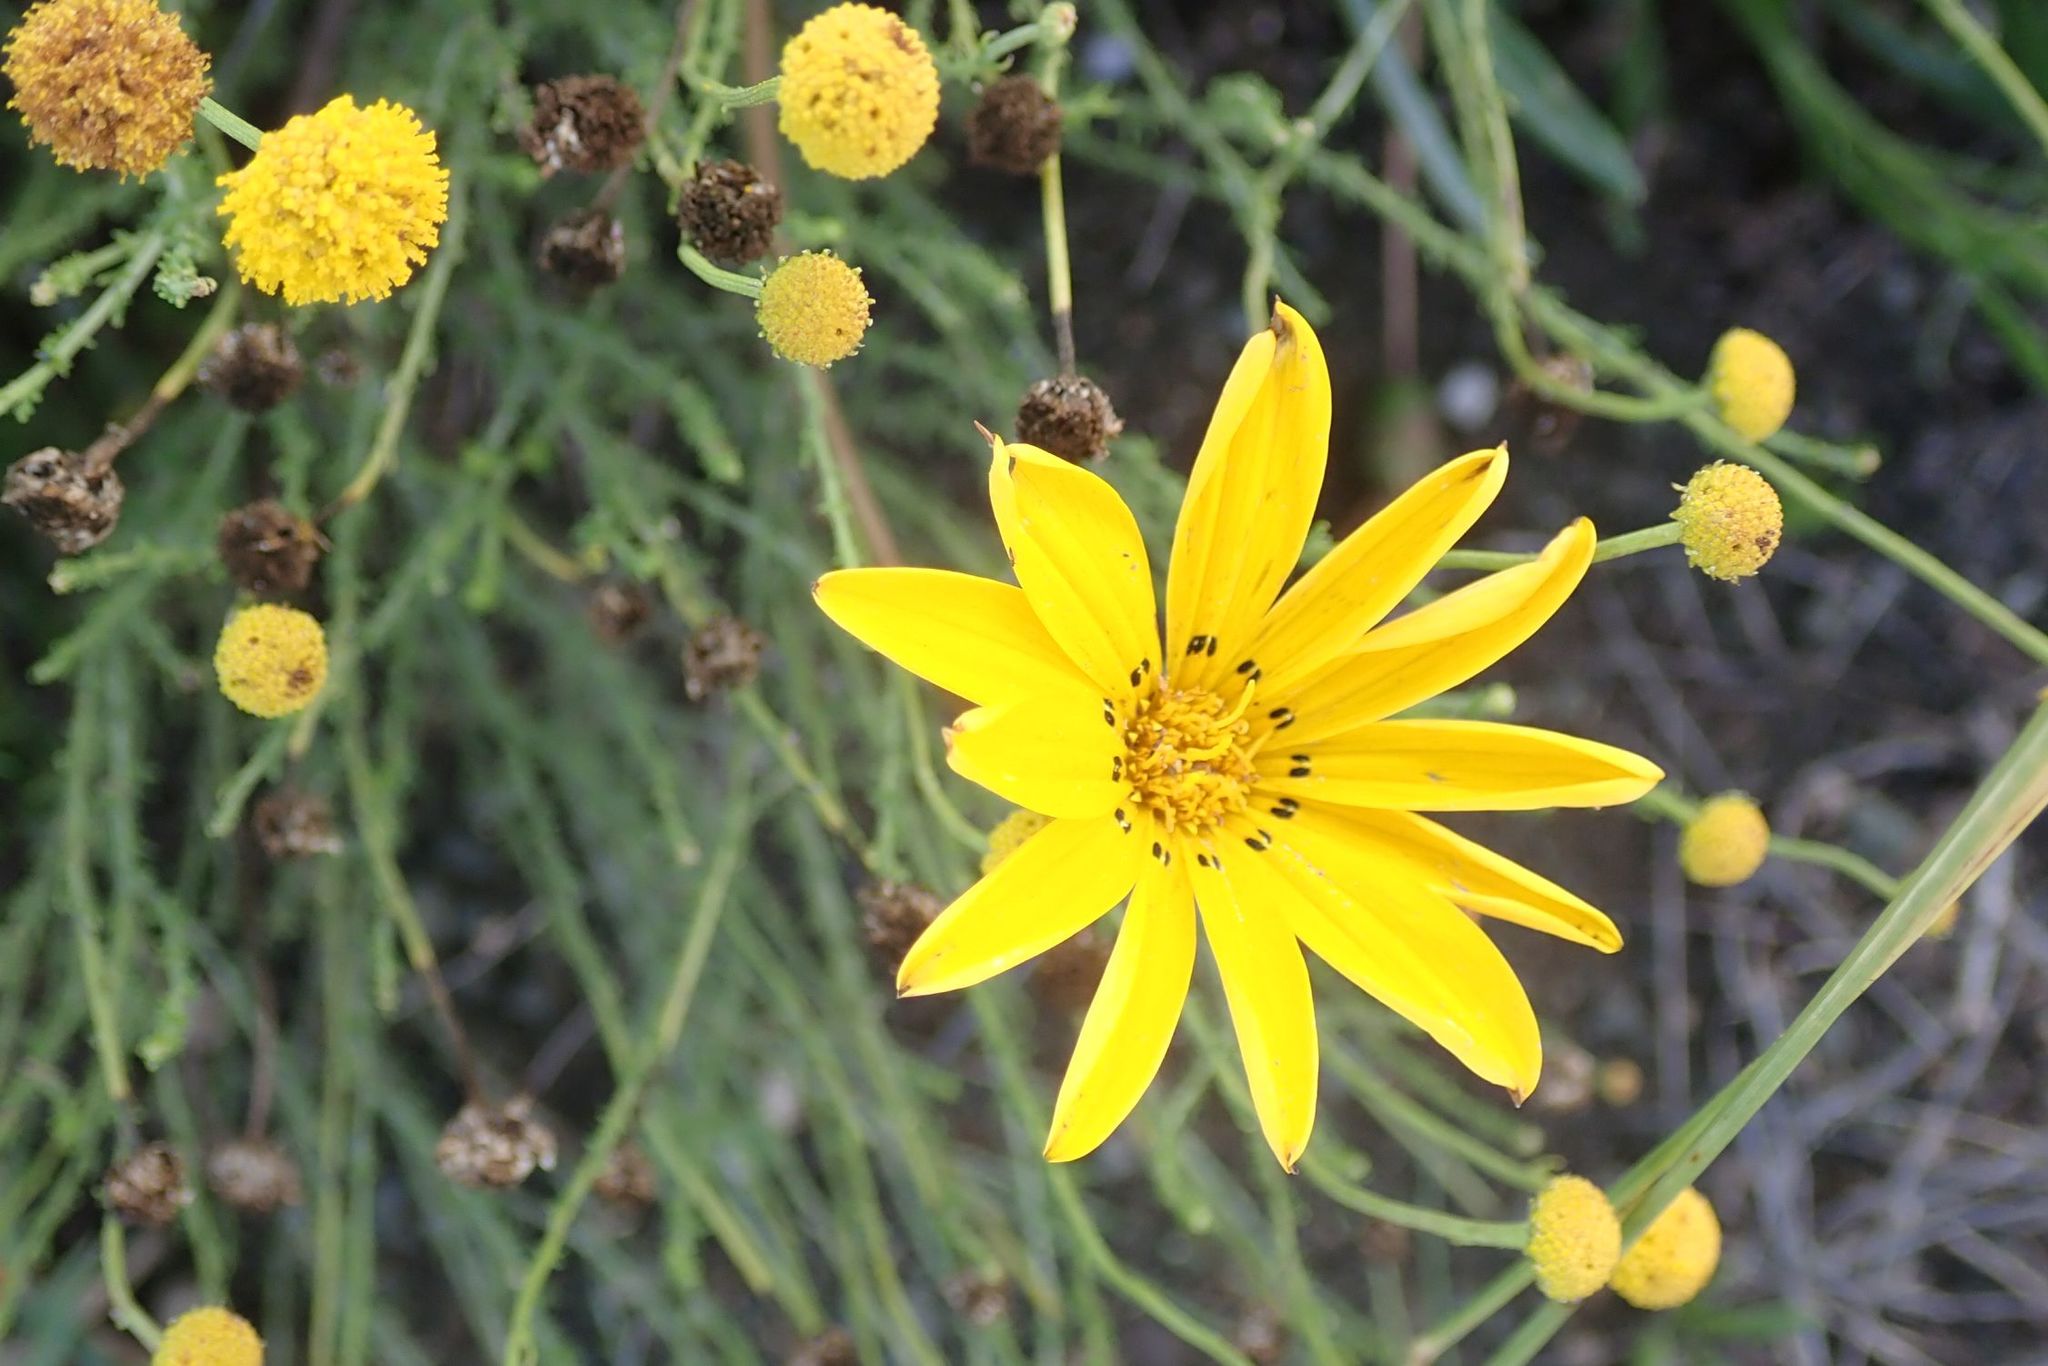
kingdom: Plantae
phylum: Tracheophyta
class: Magnoliopsida
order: Asterales
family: Asteraceae
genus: Gazania
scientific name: Gazania krebsiana
